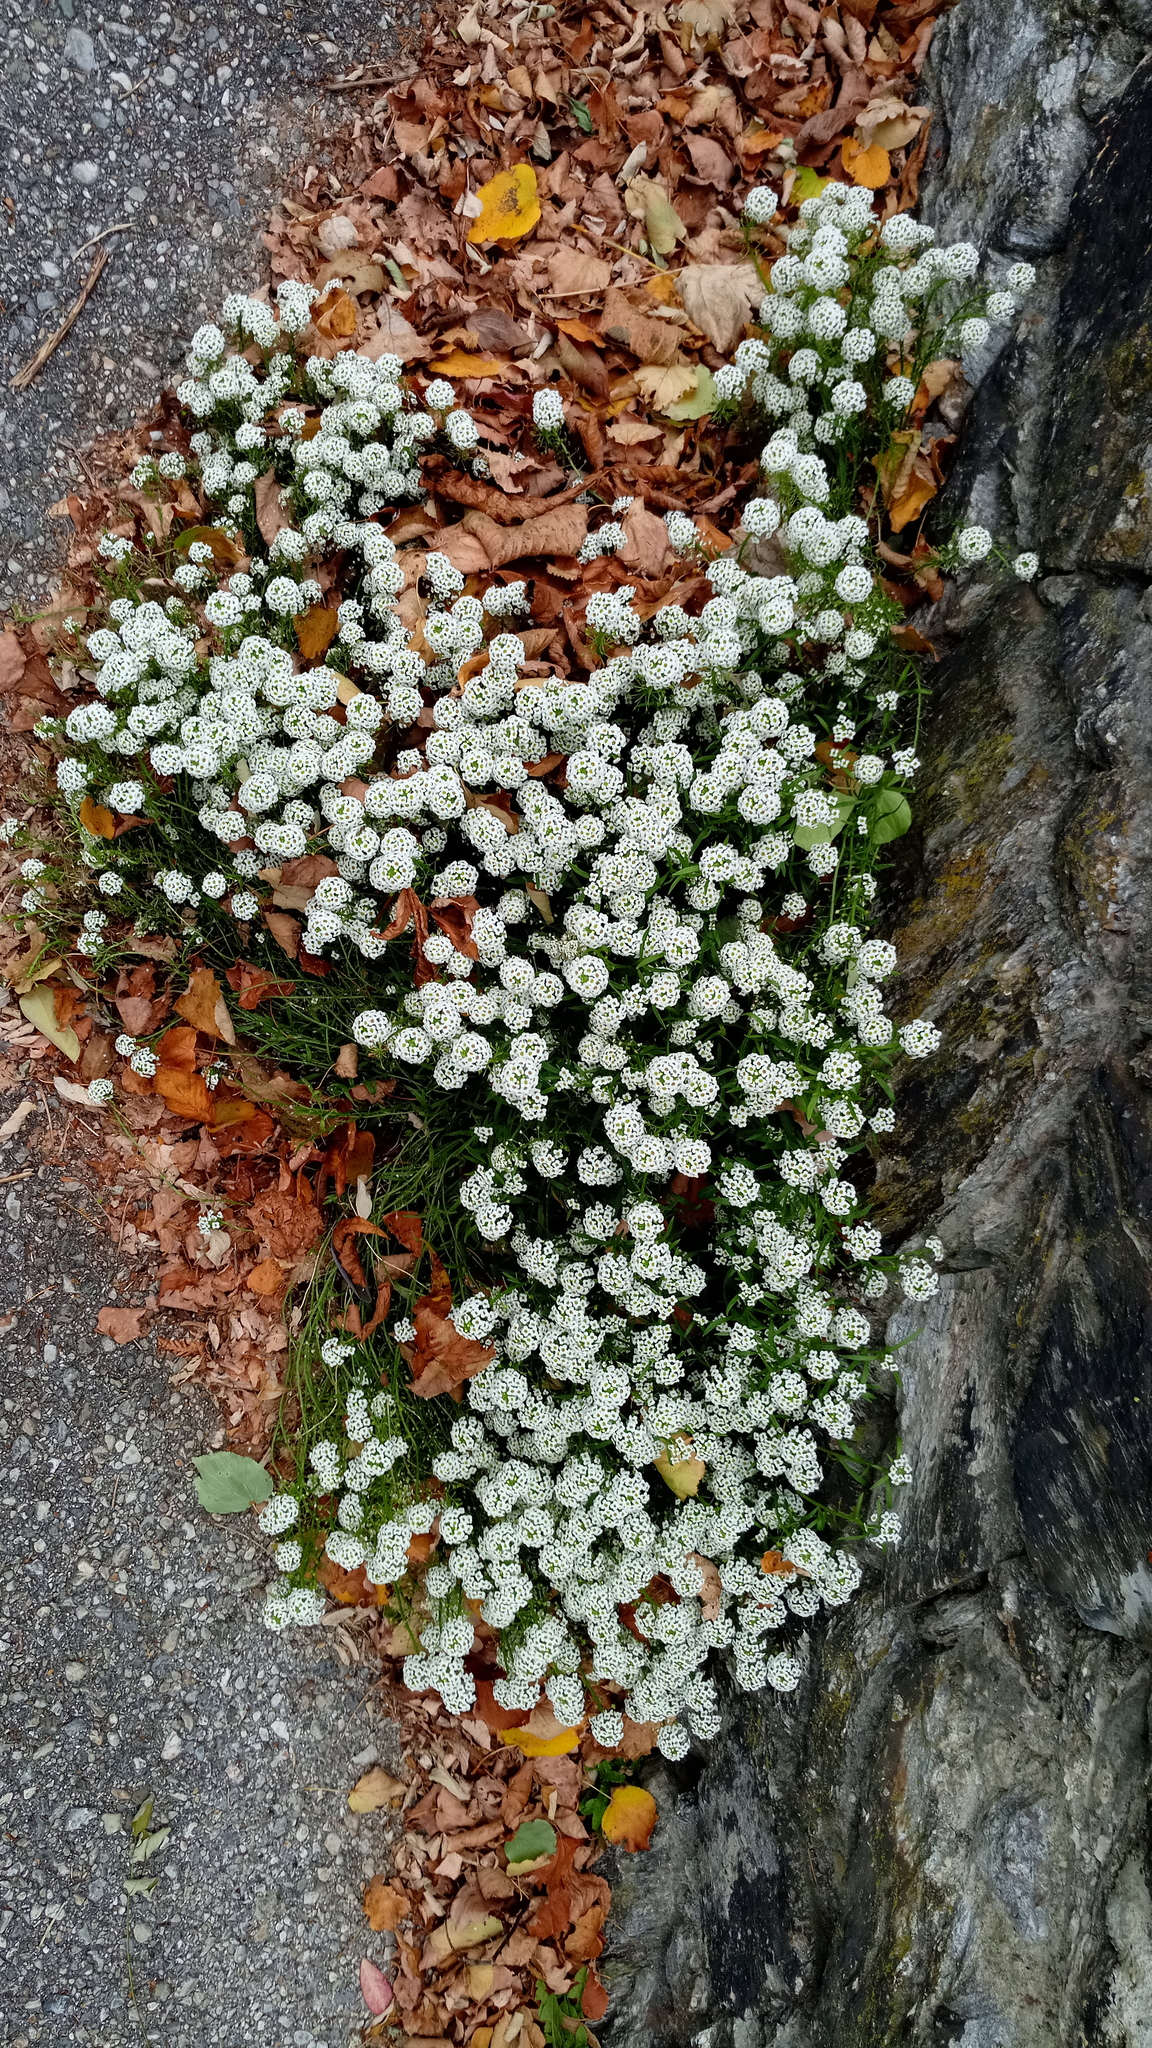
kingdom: Plantae
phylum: Tracheophyta
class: Magnoliopsida
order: Brassicales
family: Brassicaceae
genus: Lobularia
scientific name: Lobularia maritima
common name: Sweet alison
